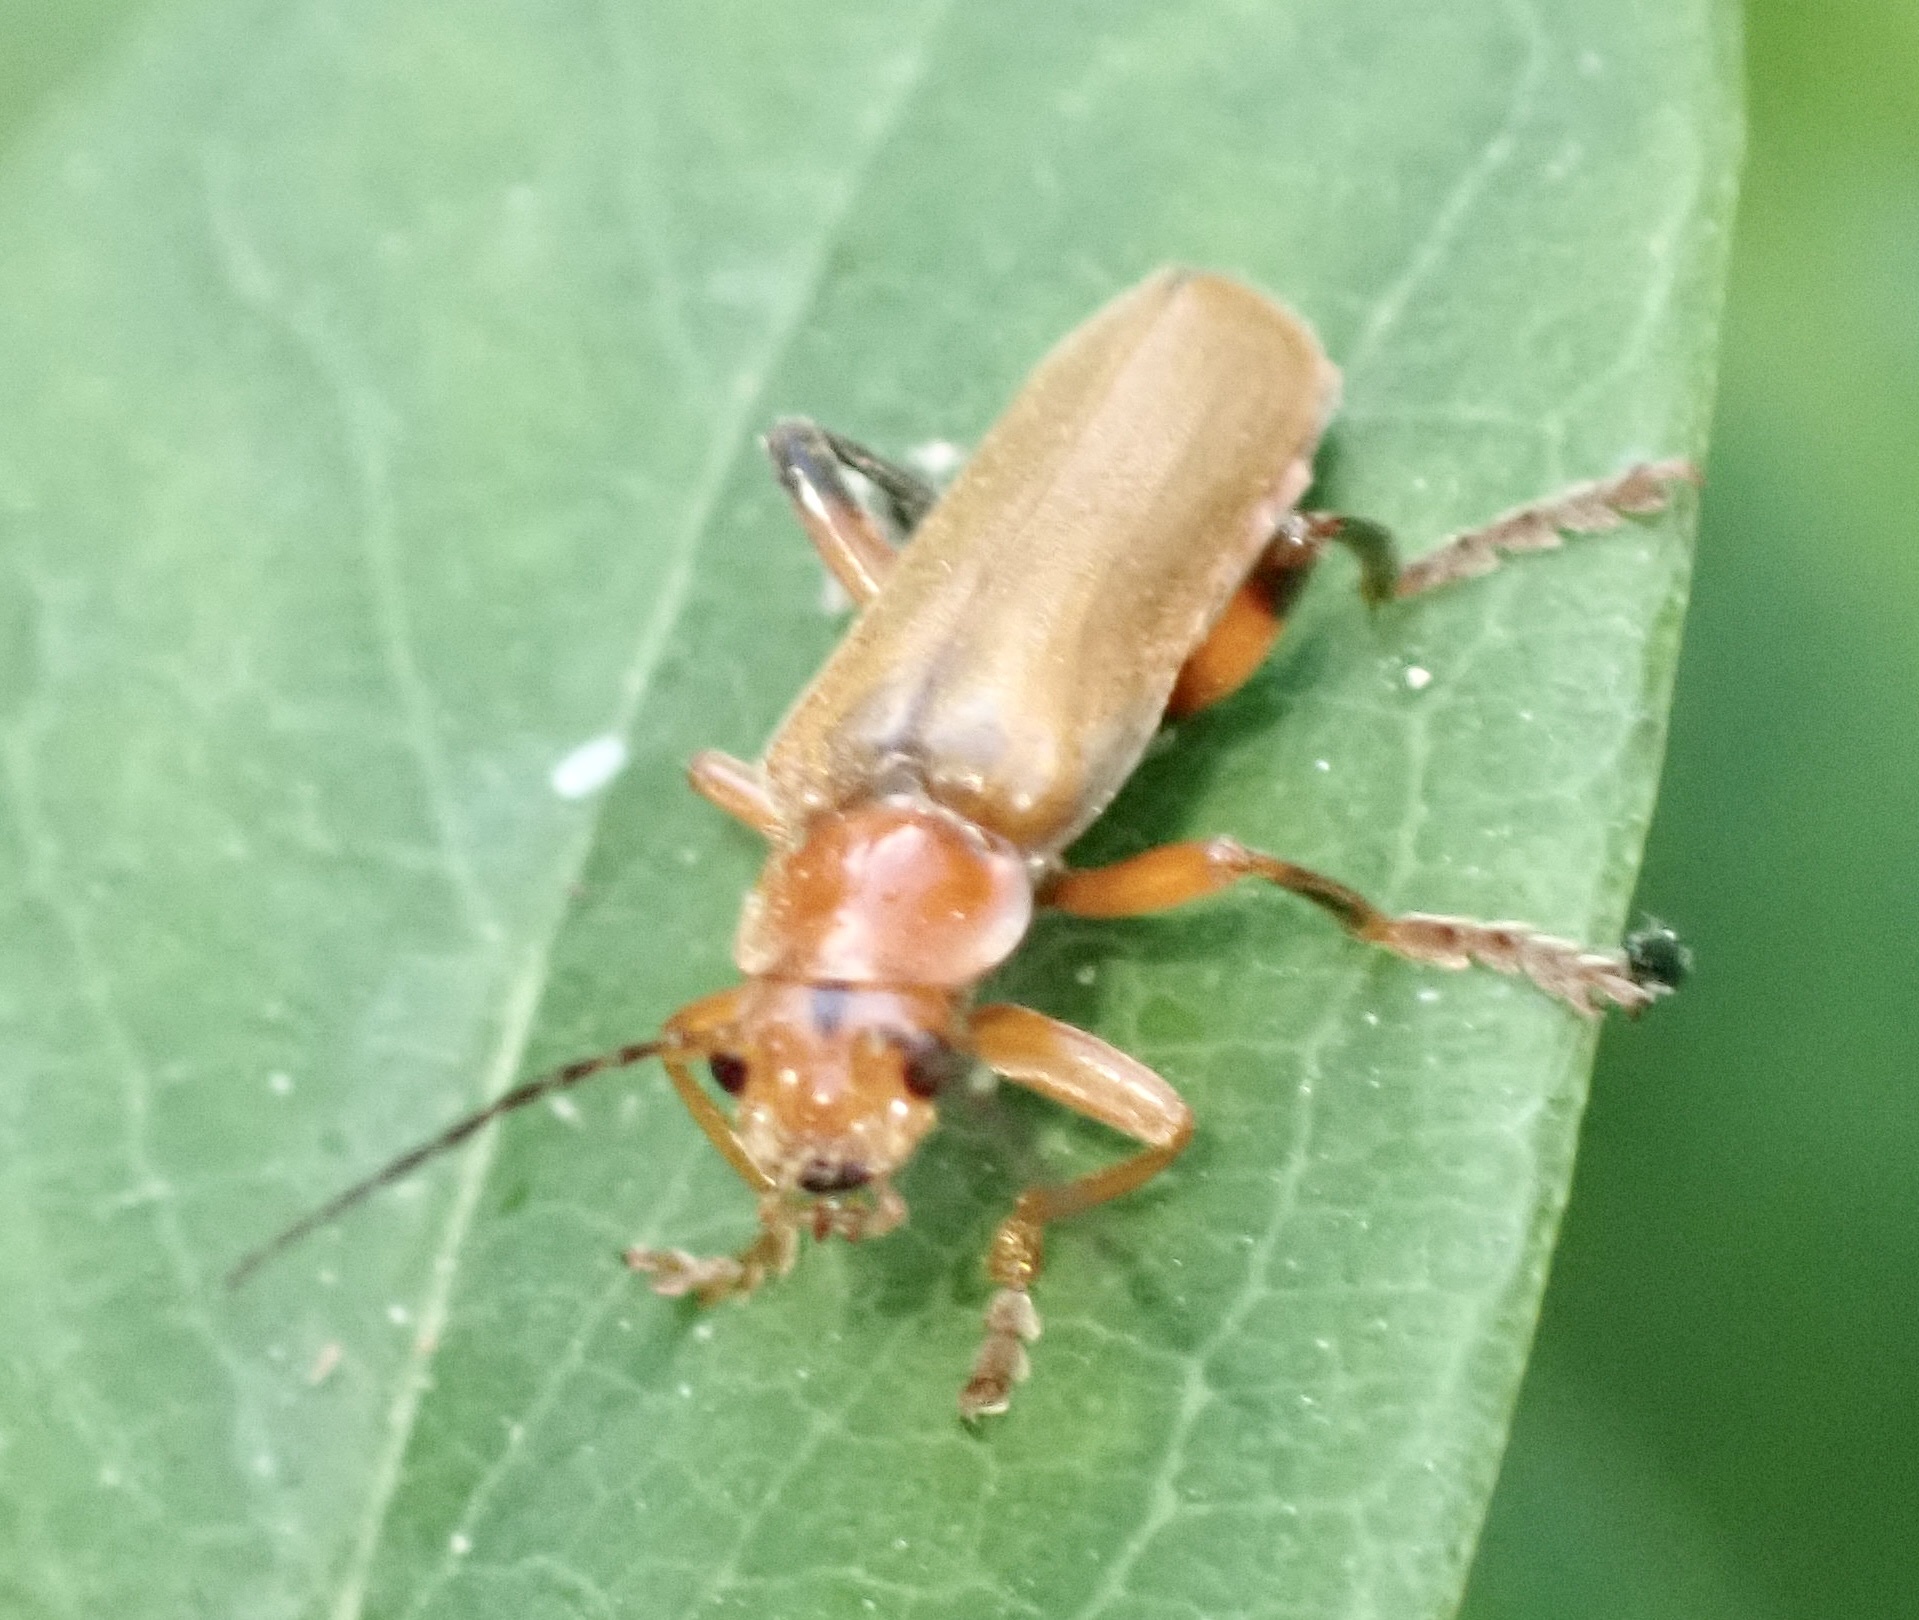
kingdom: Animalia
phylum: Arthropoda
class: Insecta
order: Coleoptera
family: Cantharidae
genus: Cantharis
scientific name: Cantharis livida
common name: Livid soldier beetle
